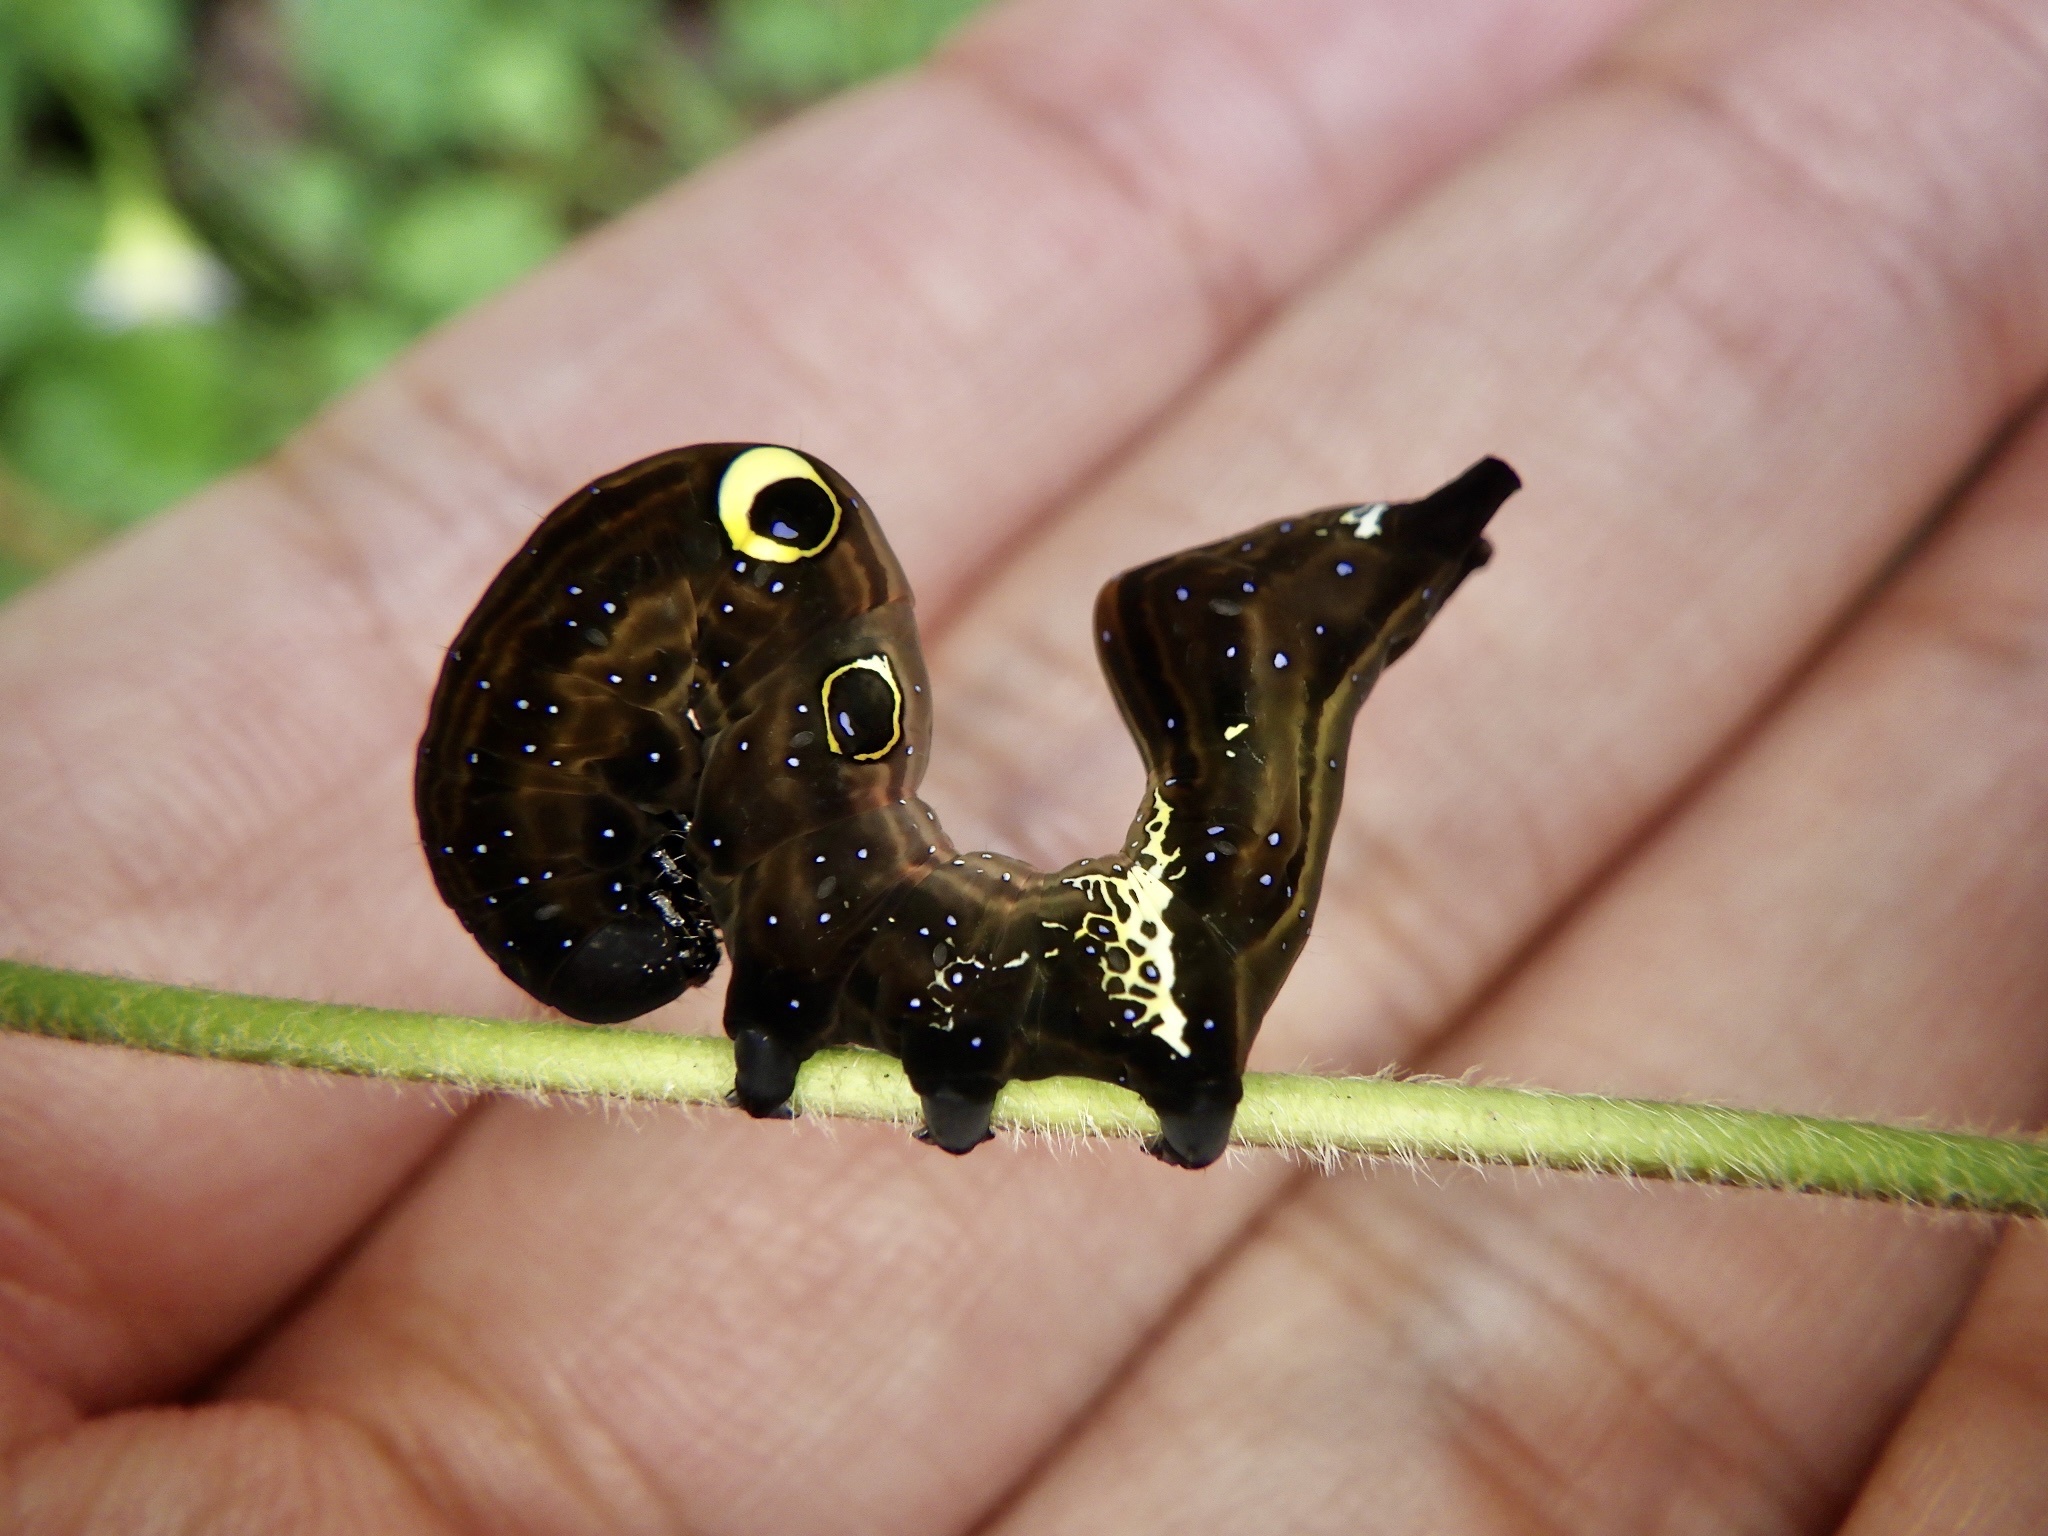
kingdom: Animalia
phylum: Arthropoda
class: Insecta
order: Lepidoptera
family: Erebidae
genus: Eudocima
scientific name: Eudocima tyrannus
